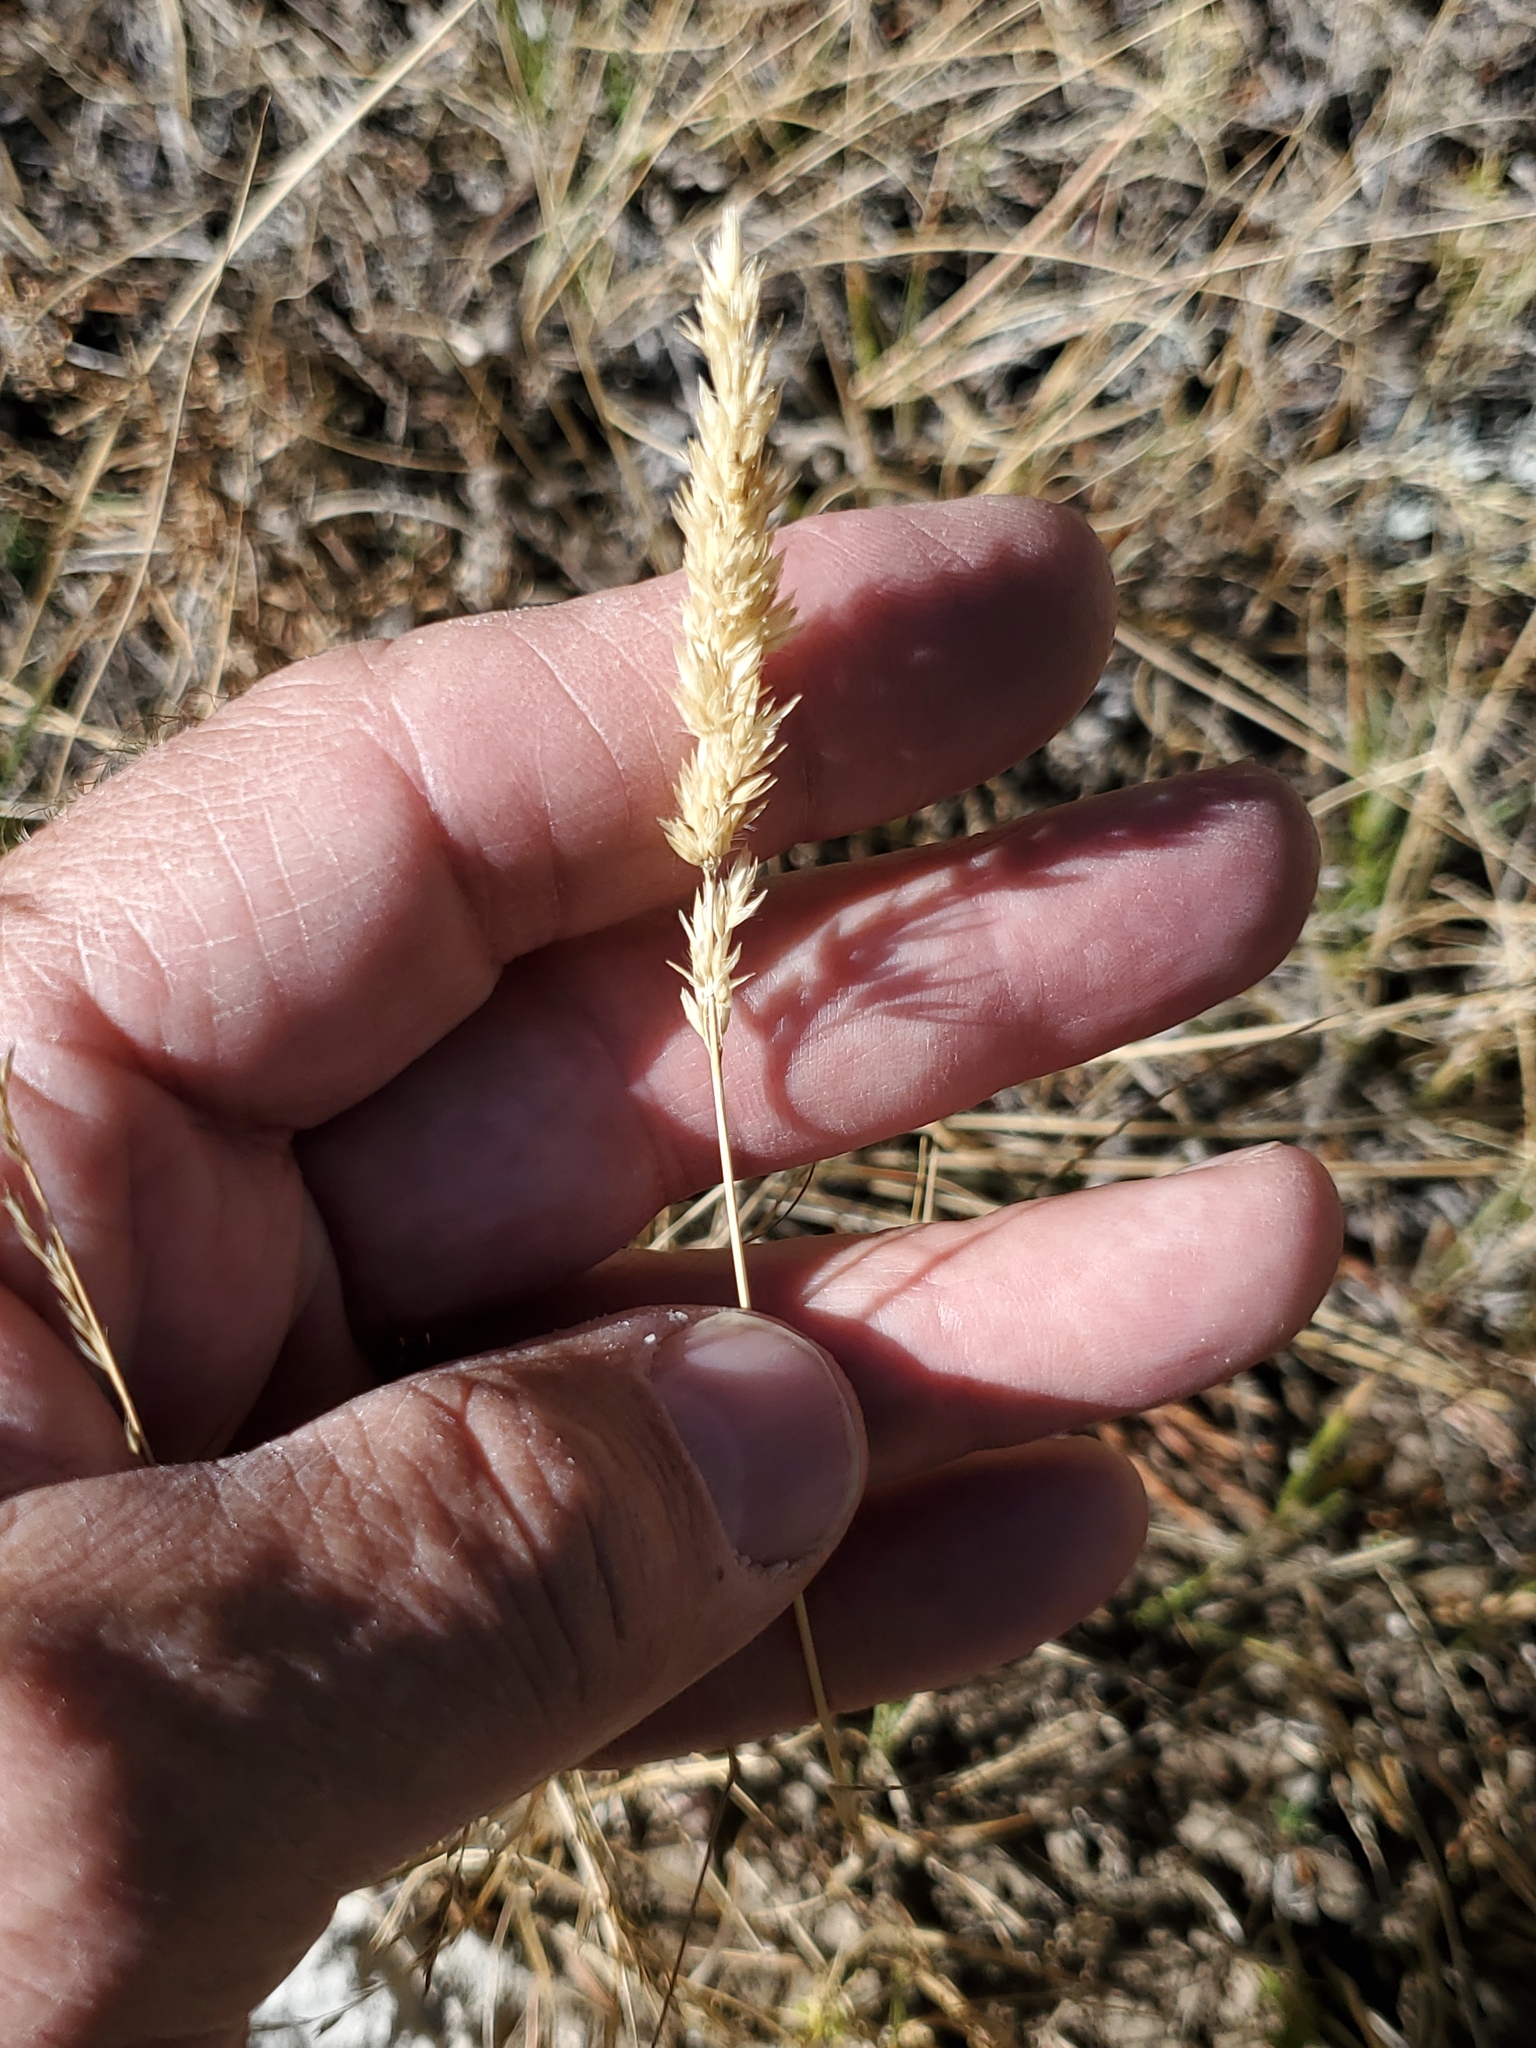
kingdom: Plantae
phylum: Tracheophyta
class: Liliopsida
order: Poales
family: Poaceae
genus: Dactylis
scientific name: Dactylis glomerata
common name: Orchardgrass
